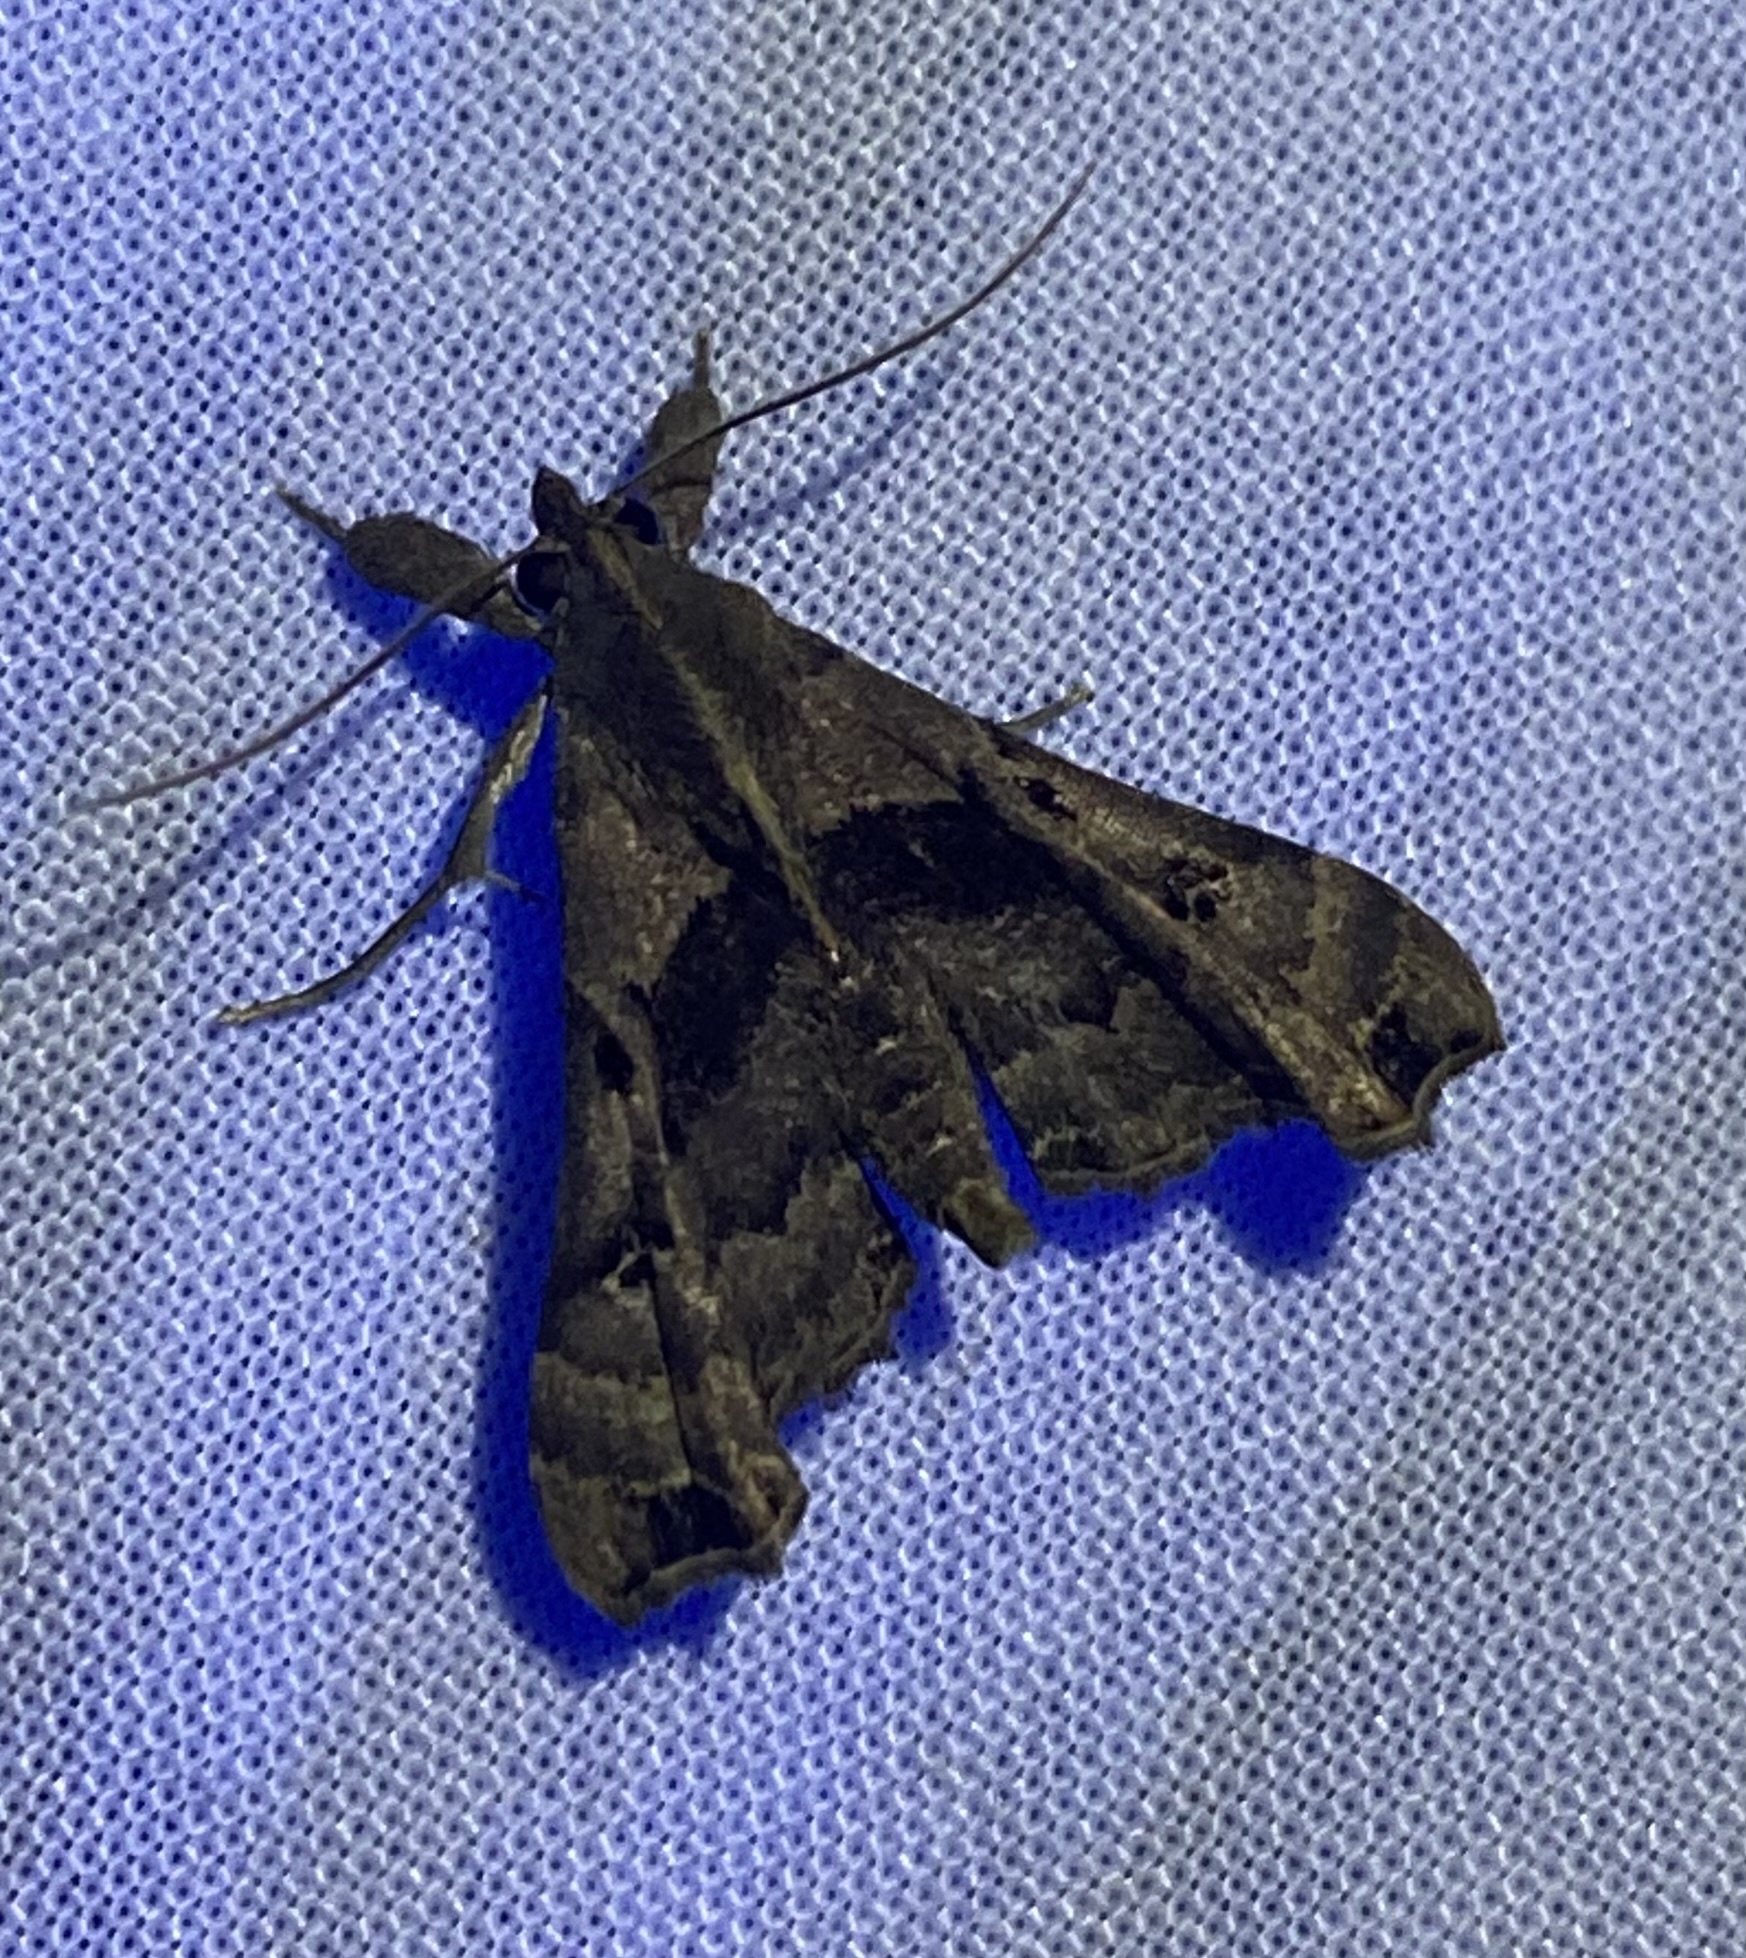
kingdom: Animalia
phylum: Arthropoda
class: Insecta
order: Lepidoptera
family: Erebidae
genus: Palthis
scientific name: Palthis asopialis
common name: Faint-spotted palthis moth
